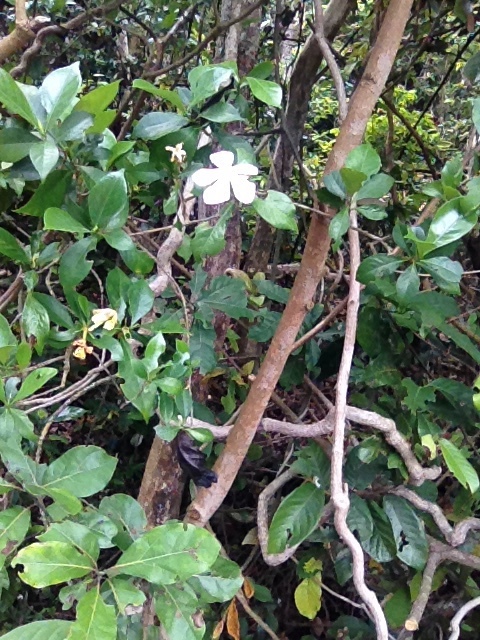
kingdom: Plantae
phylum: Tracheophyta
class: Magnoliopsida
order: Gentianales
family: Rubiaceae
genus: Gardenia
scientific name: Gardenia jasminoides
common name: Cape-jasmine
